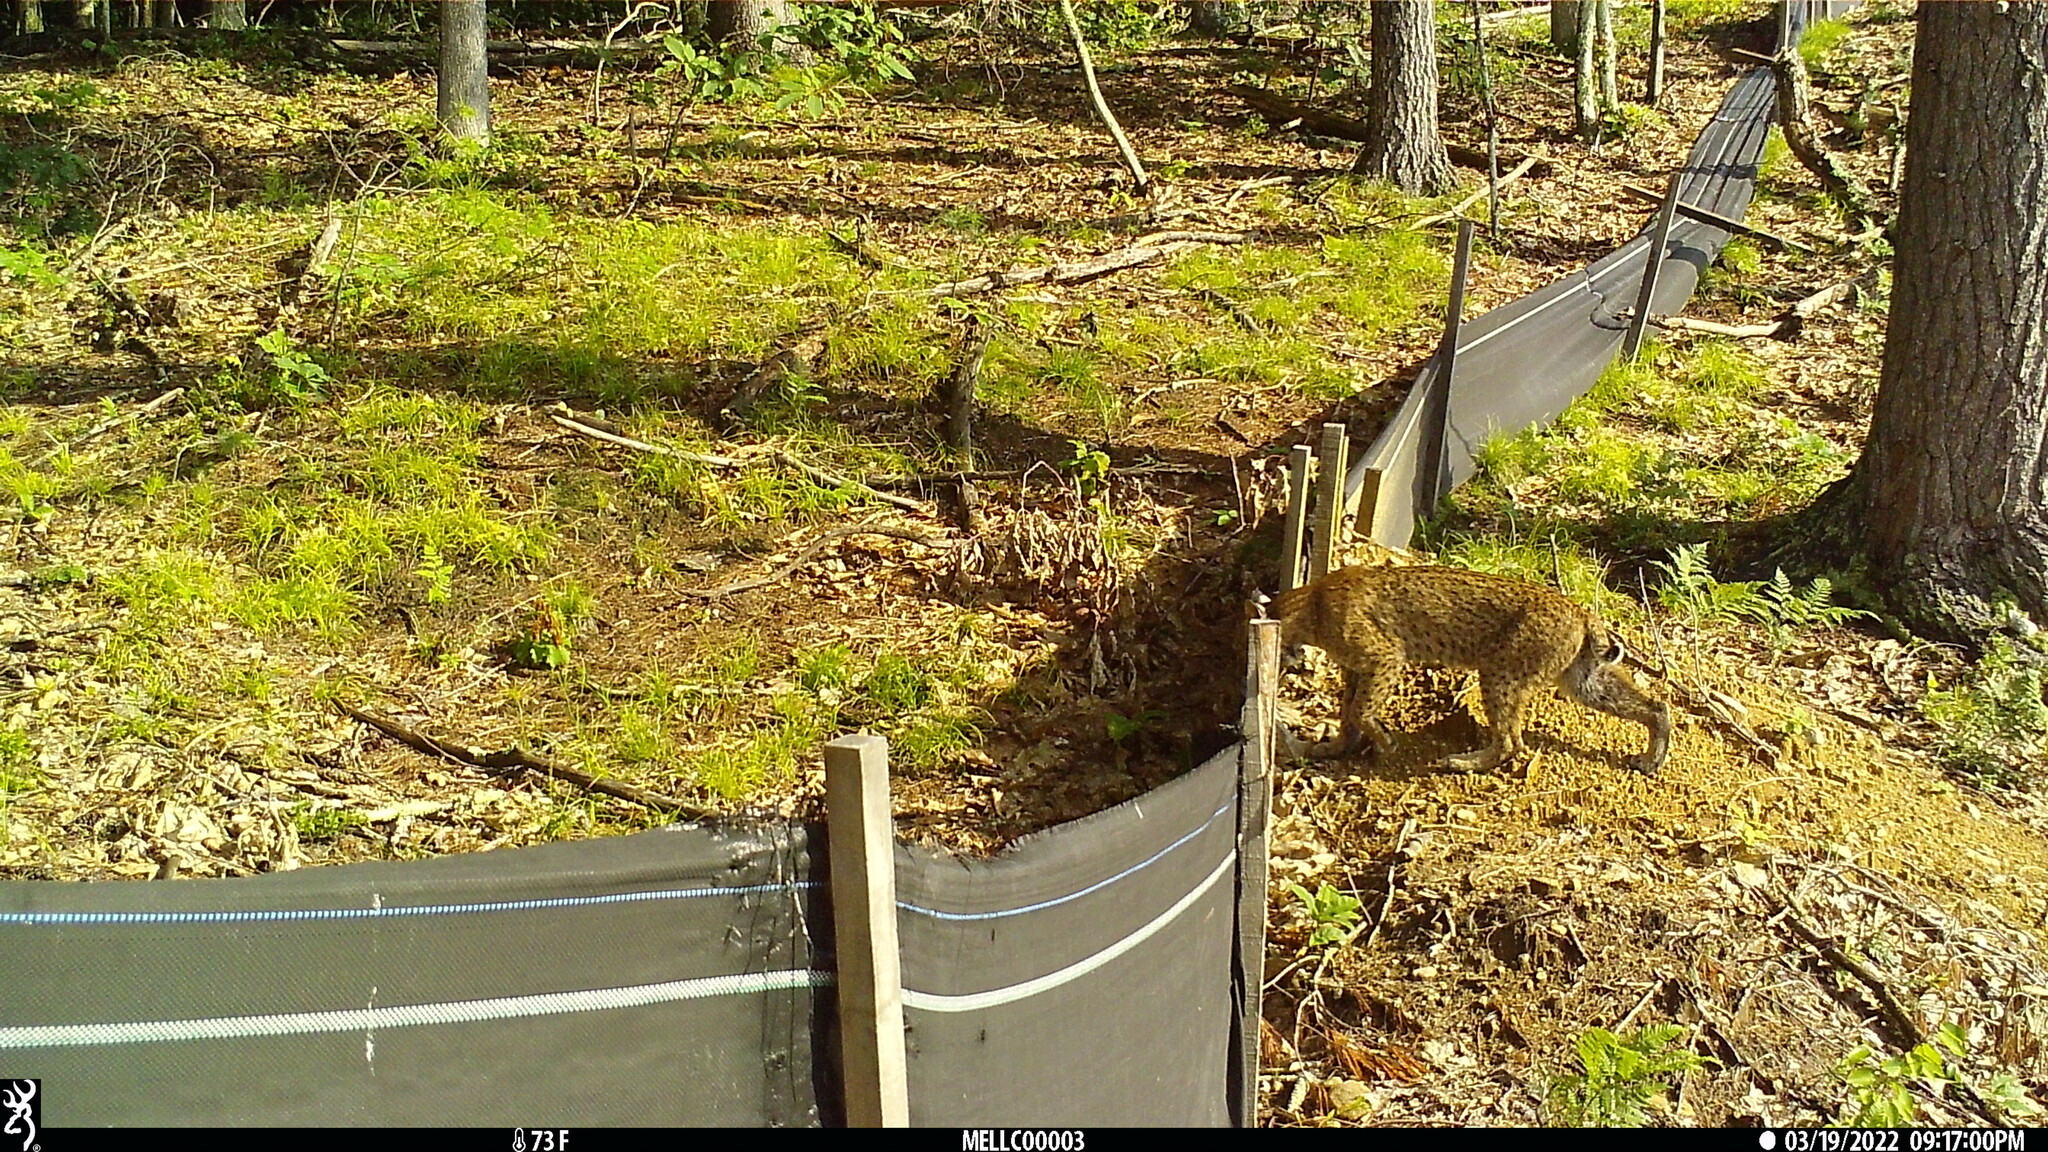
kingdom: Animalia
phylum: Chordata
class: Mammalia
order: Carnivora
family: Felidae
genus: Lynx
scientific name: Lynx rufus
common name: Bobcat
